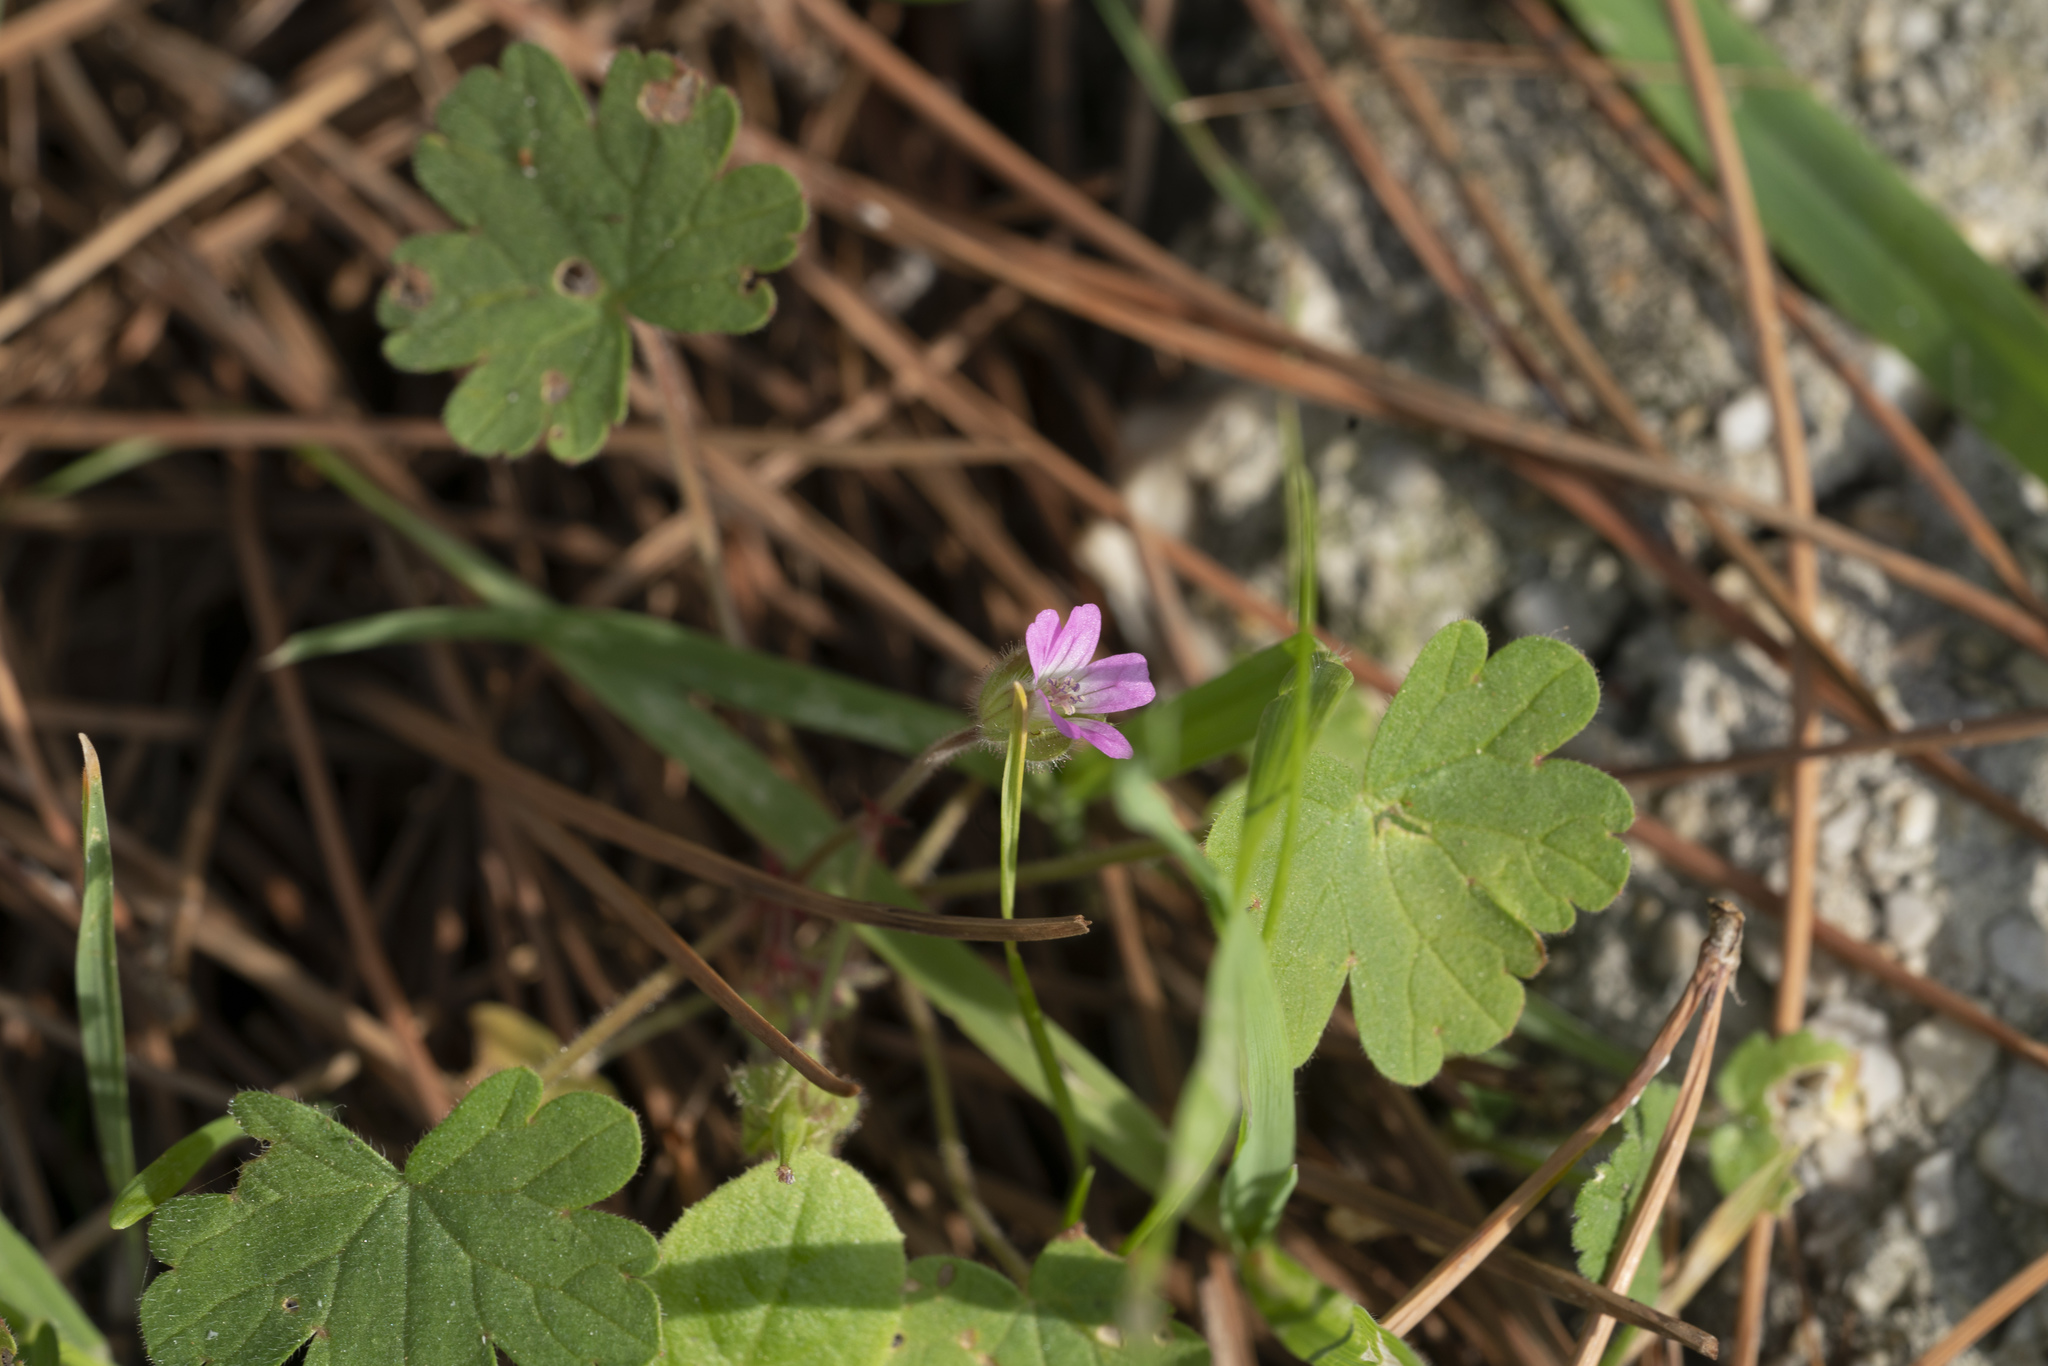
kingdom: Plantae
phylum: Tracheophyta
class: Magnoliopsida
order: Geraniales
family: Geraniaceae
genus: Geranium
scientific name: Geranium rotundifolium
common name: Round-leaved crane's-bill
